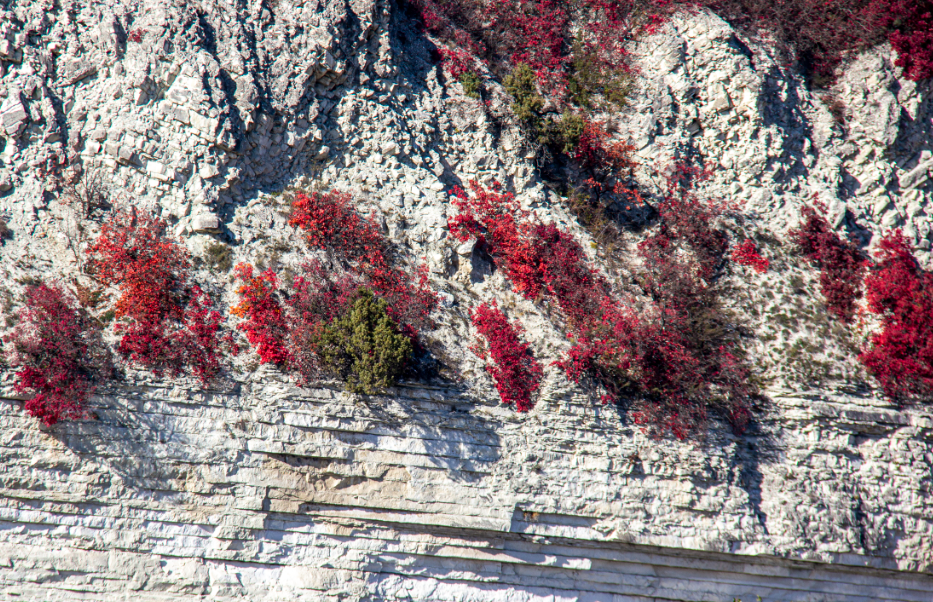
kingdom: Plantae
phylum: Tracheophyta
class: Magnoliopsida
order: Sapindales
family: Anacardiaceae
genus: Cotinus
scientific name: Cotinus coggygria
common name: Smoke-tree
